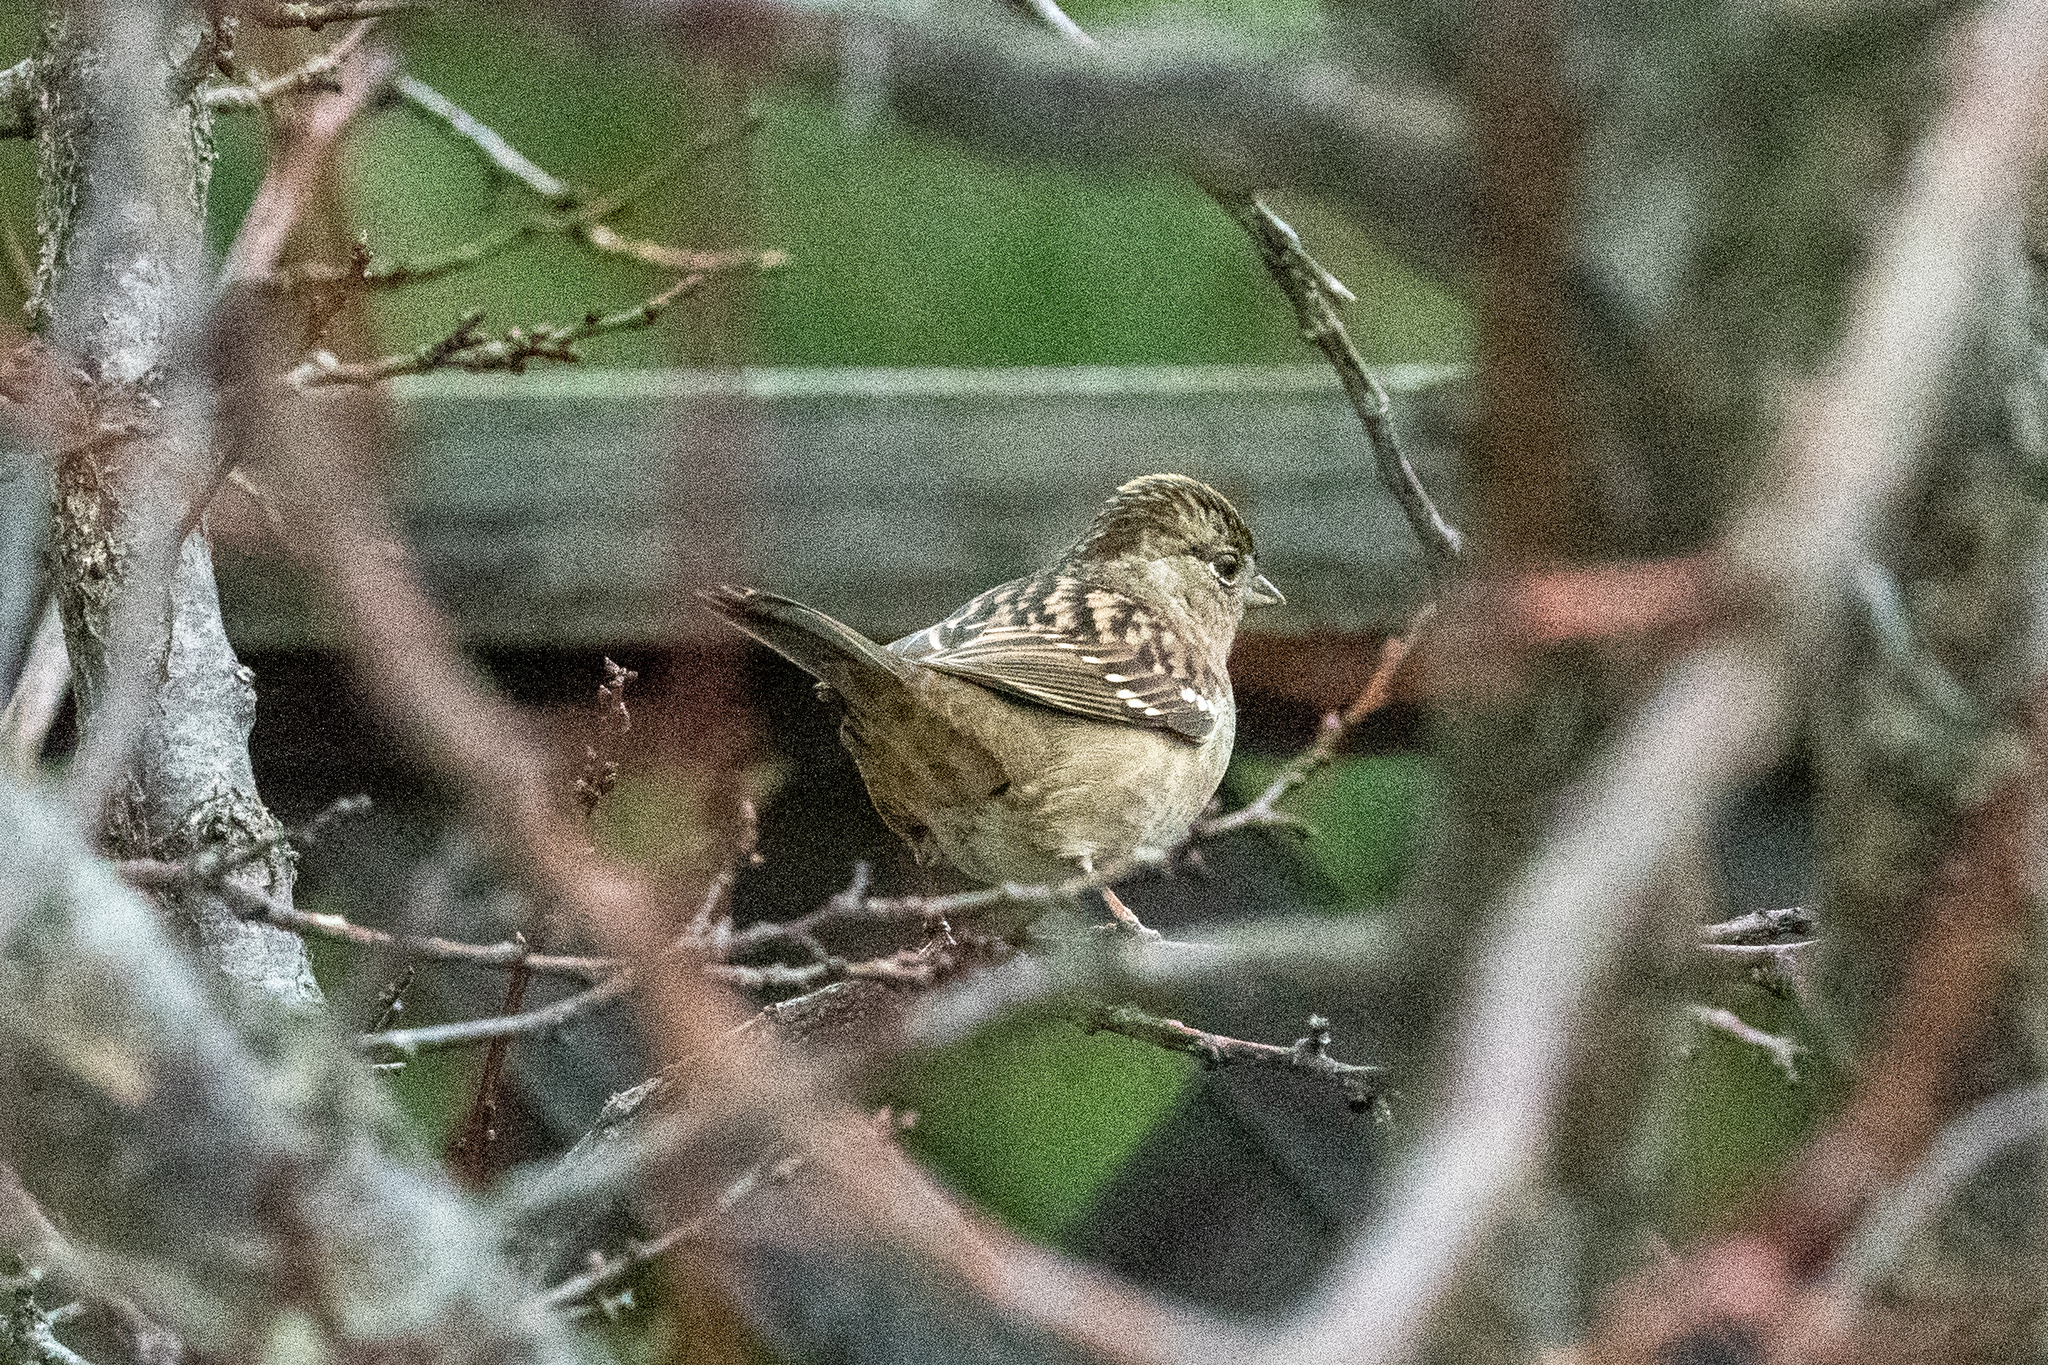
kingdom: Animalia
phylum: Chordata
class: Aves
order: Passeriformes
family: Passerellidae
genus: Zonotrichia
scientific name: Zonotrichia atricapilla
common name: Golden-crowned sparrow
